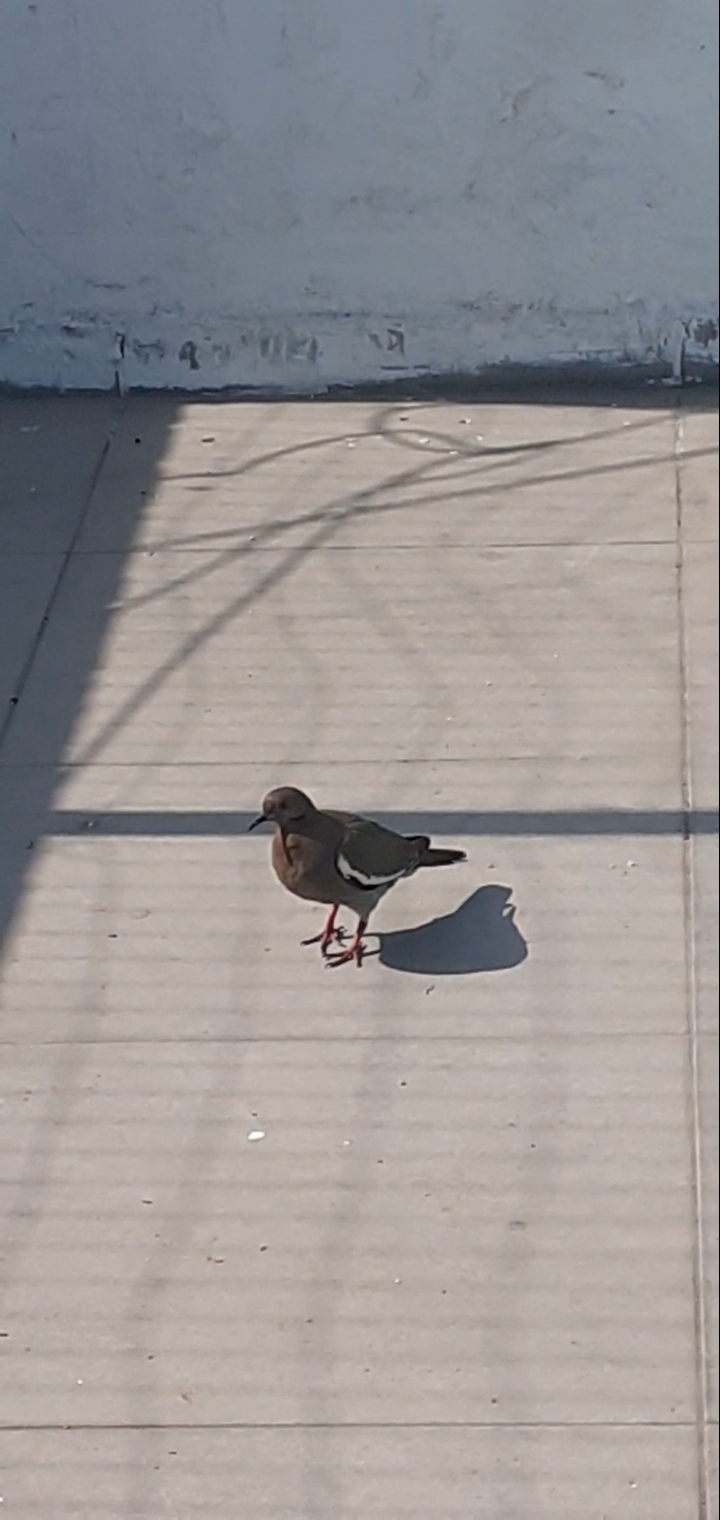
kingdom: Animalia
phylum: Chordata
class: Aves
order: Columbiformes
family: Columbidae
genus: Zenaida
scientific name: Zenaida asiatica
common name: White-winged dove
